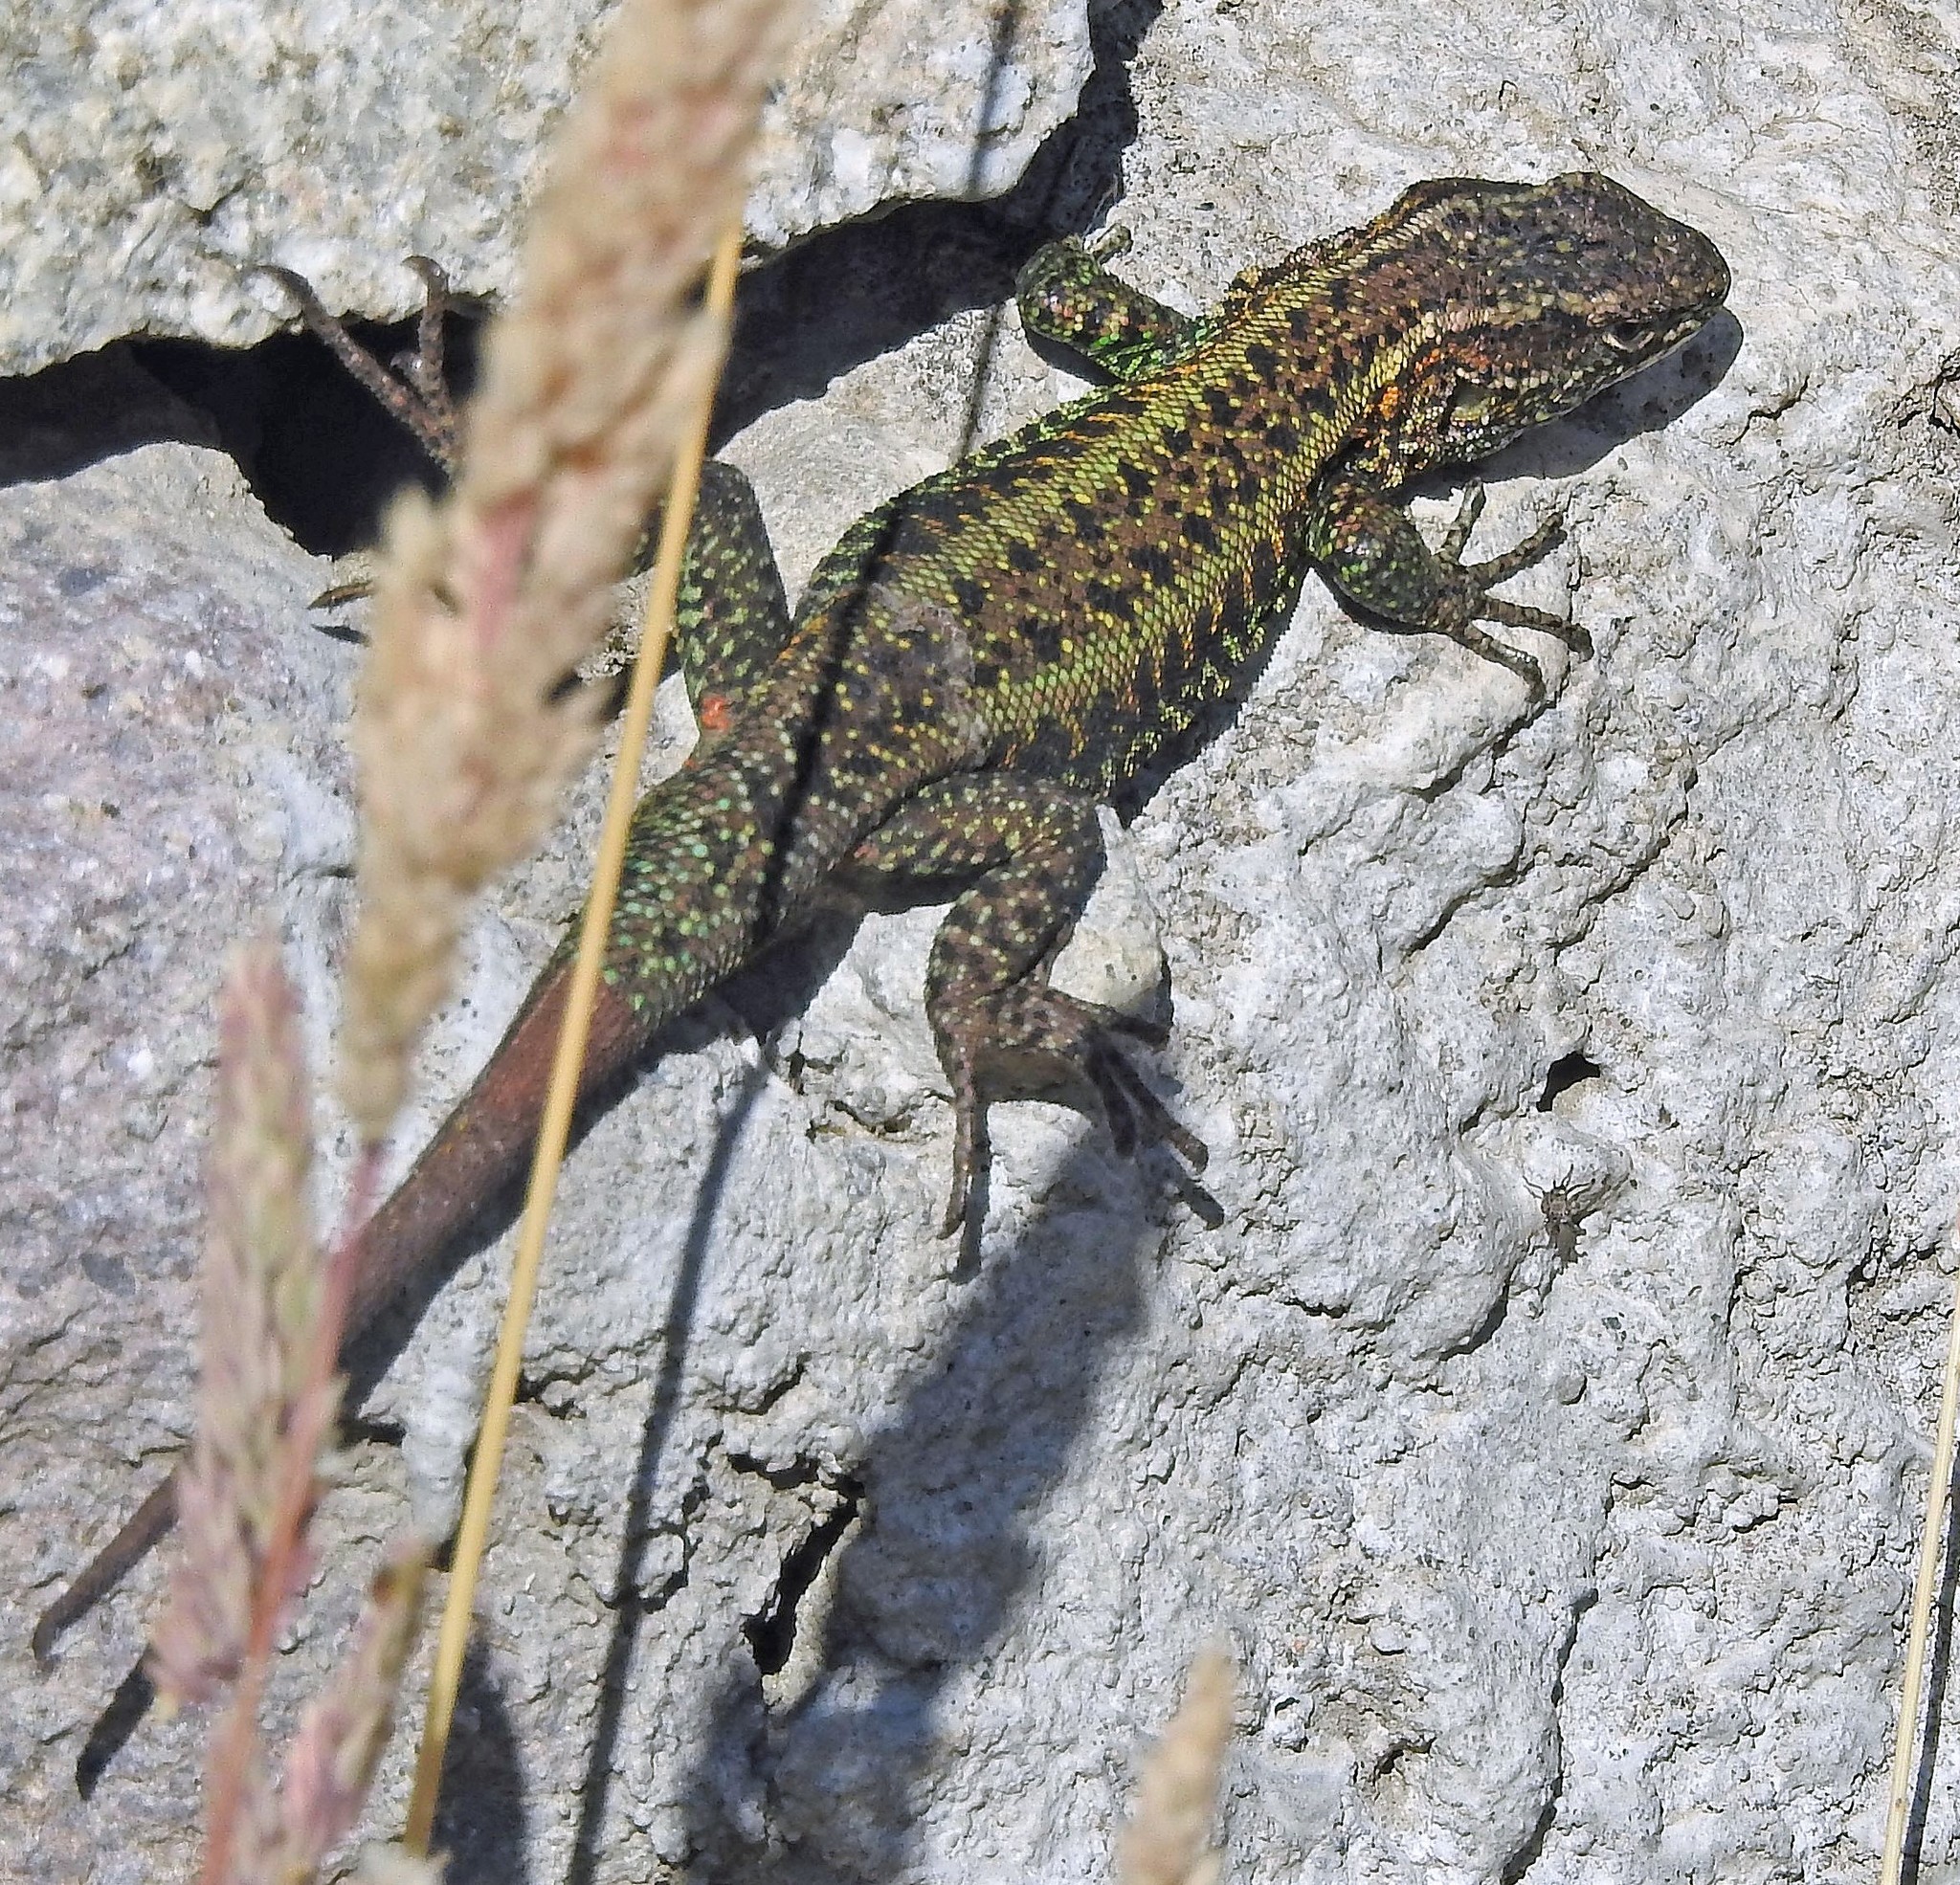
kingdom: Animalia
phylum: Chordata
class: Squamata
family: Liolaemidae
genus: Liolaemus
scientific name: Liolaemus pictus
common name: Painted tree iguana
